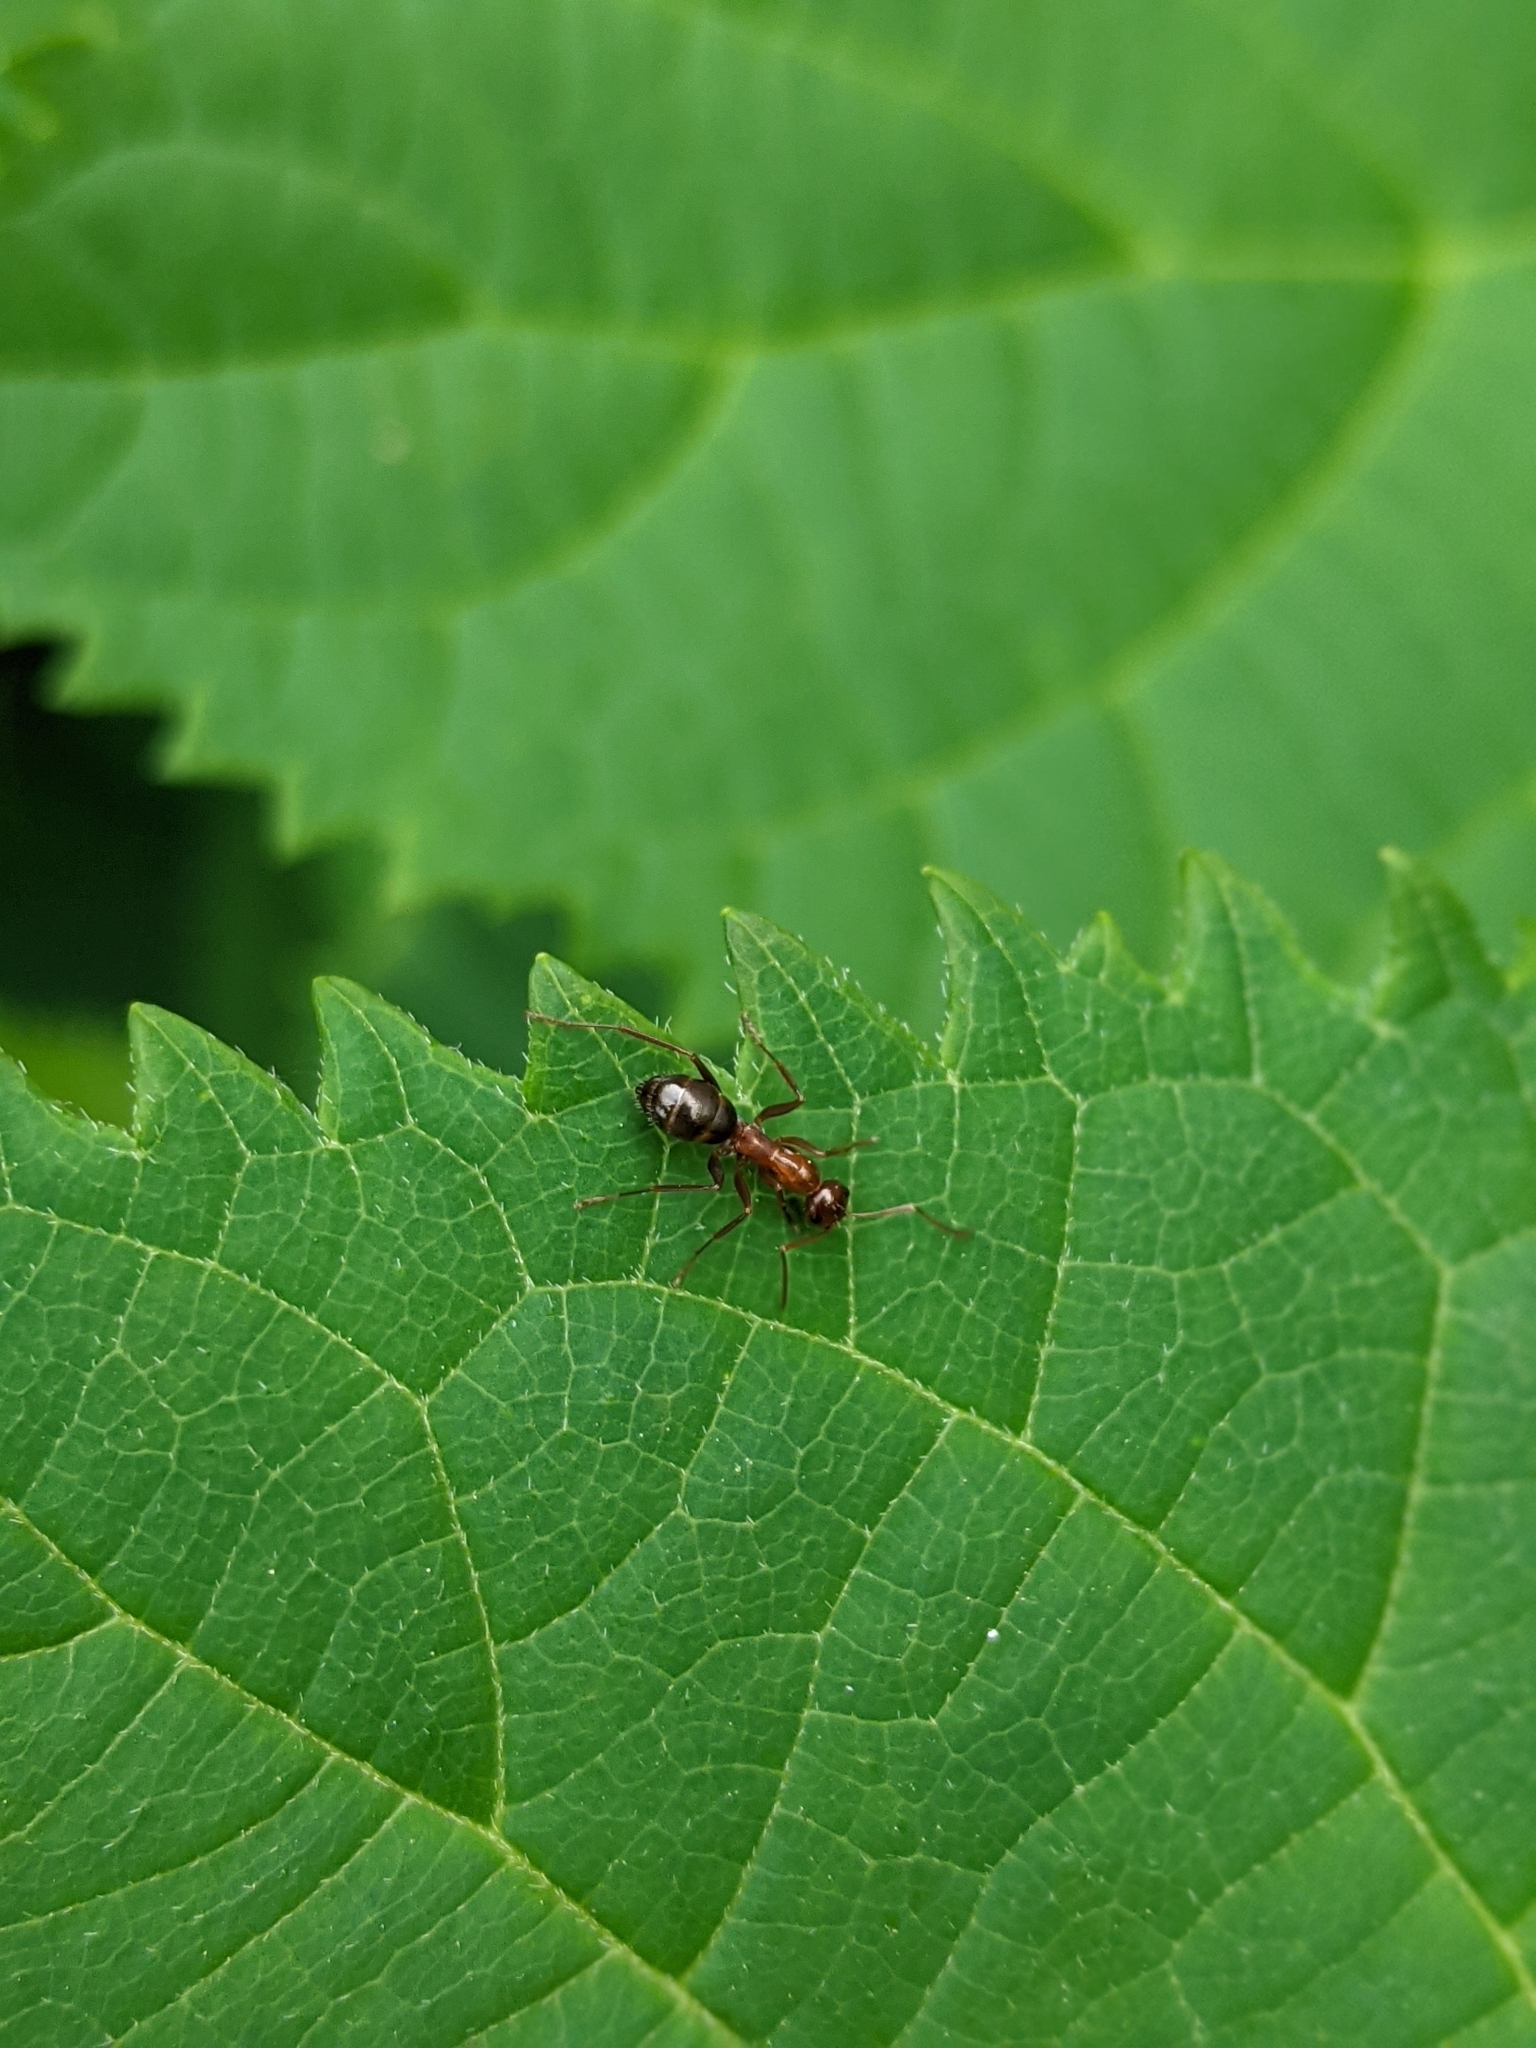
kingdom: Animalia
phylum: Arthropoda
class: Insecta
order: Hymenoptera
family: Formicidae
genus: Formica
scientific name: Formica incerta
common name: Uncertain field ant
